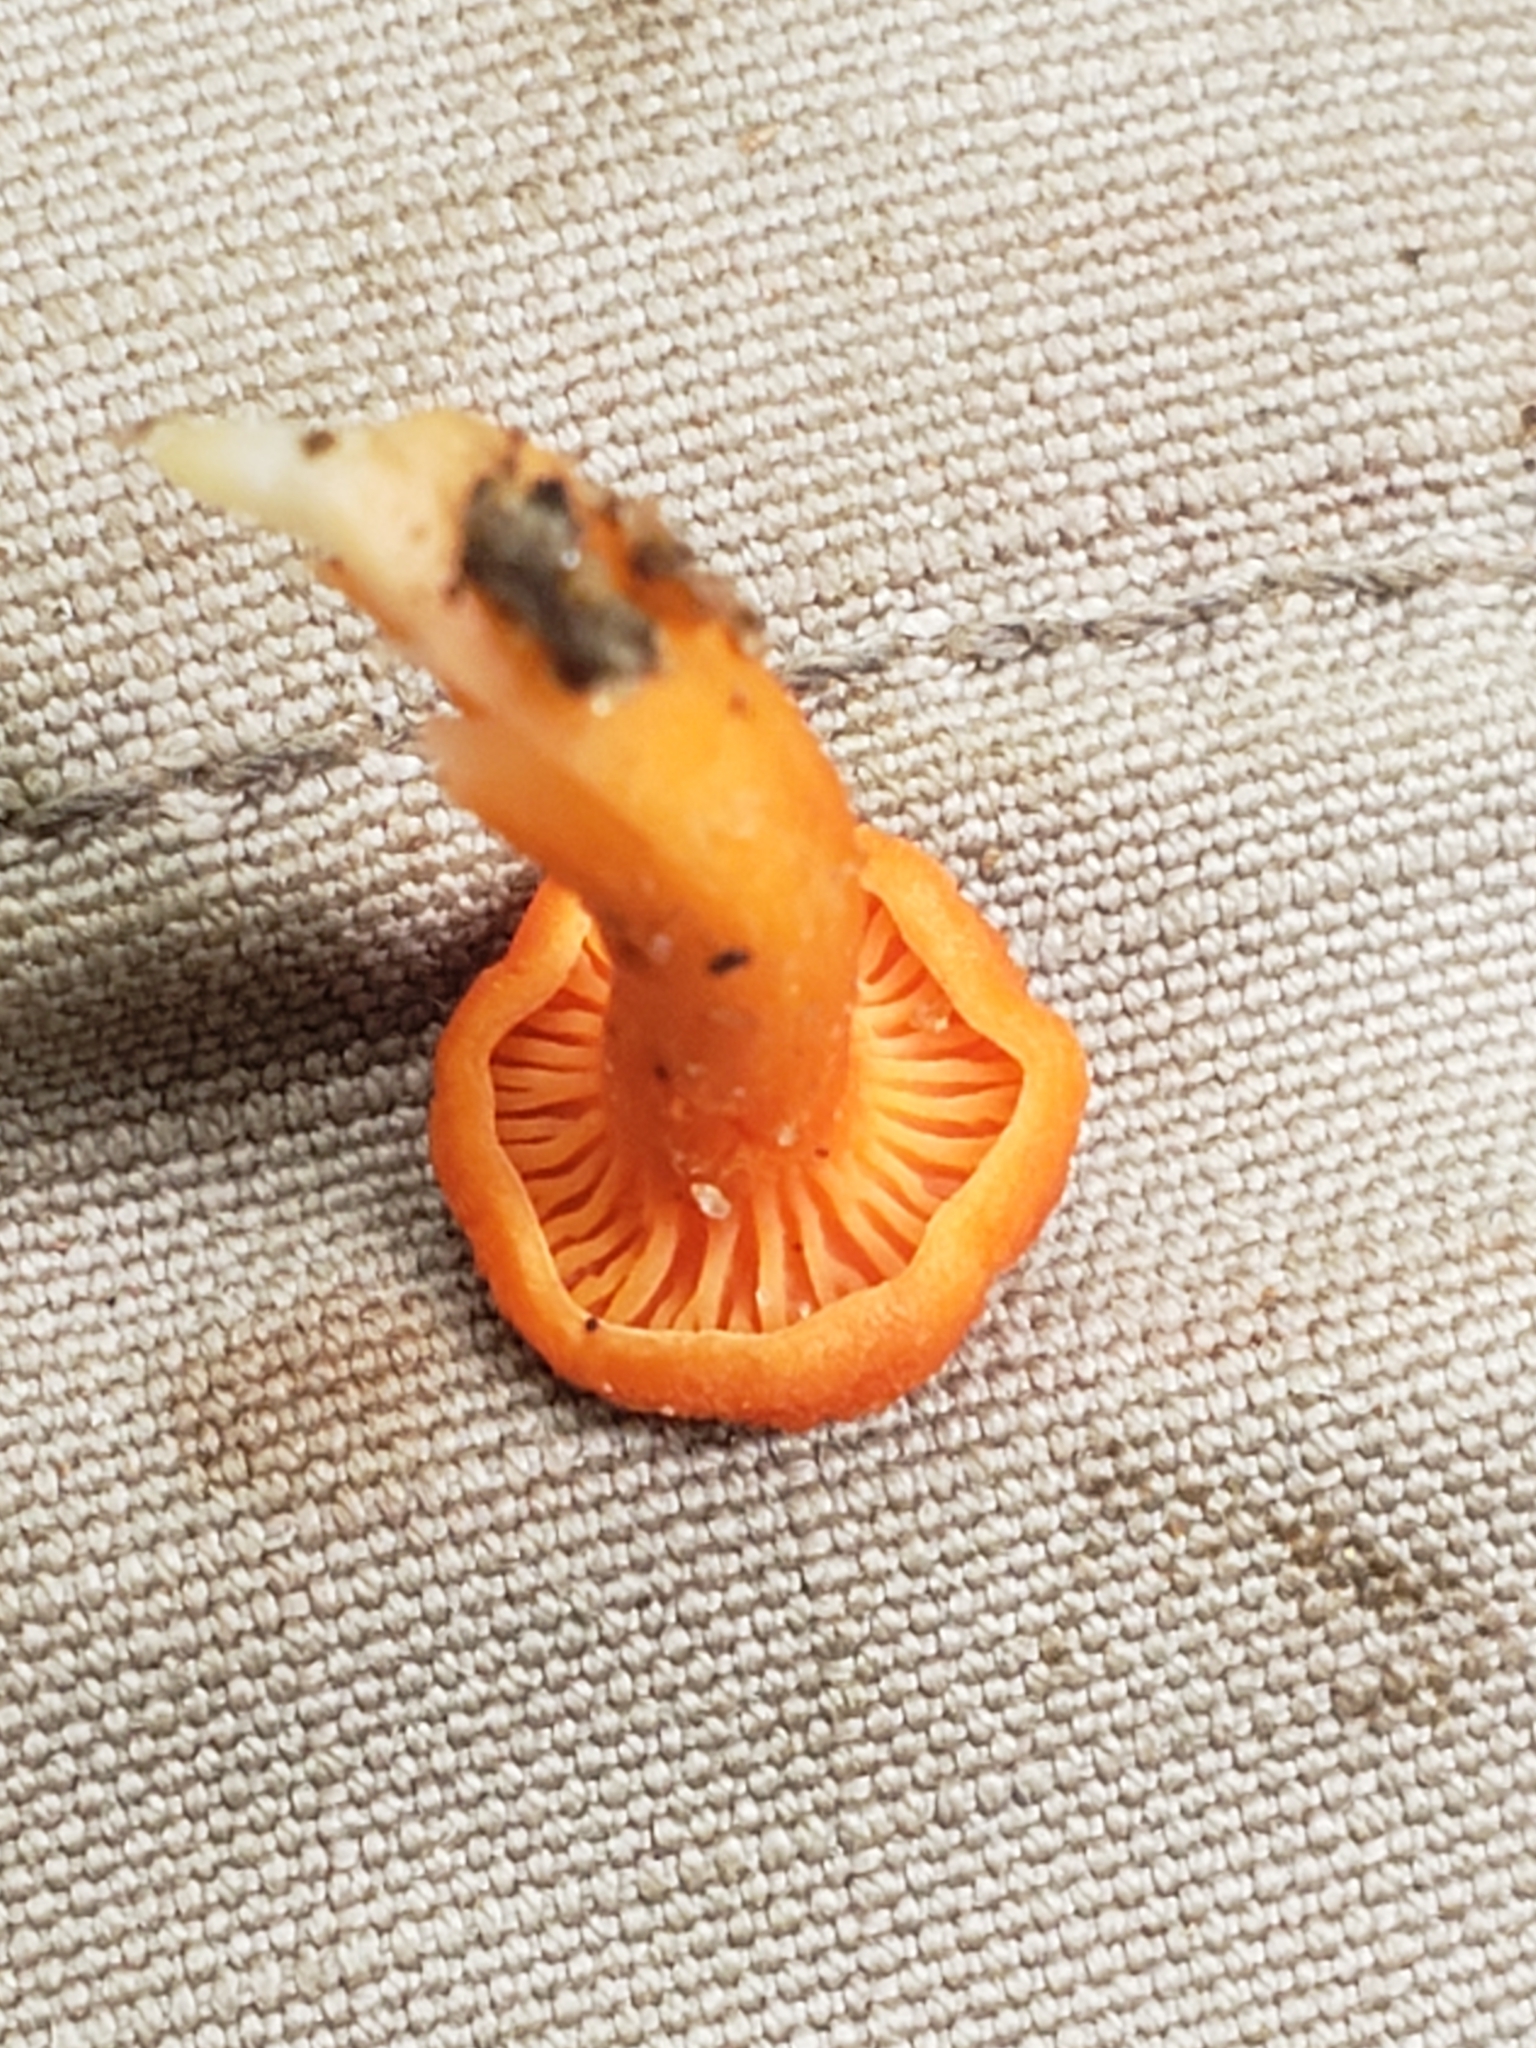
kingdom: Fungi
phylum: Basidiomycota
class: Agaricomycetes
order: Cantharellales
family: Hydnaceae
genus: Cantharellus
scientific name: Cantharellus cinnabarinus
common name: Cinnabar chanterelle
